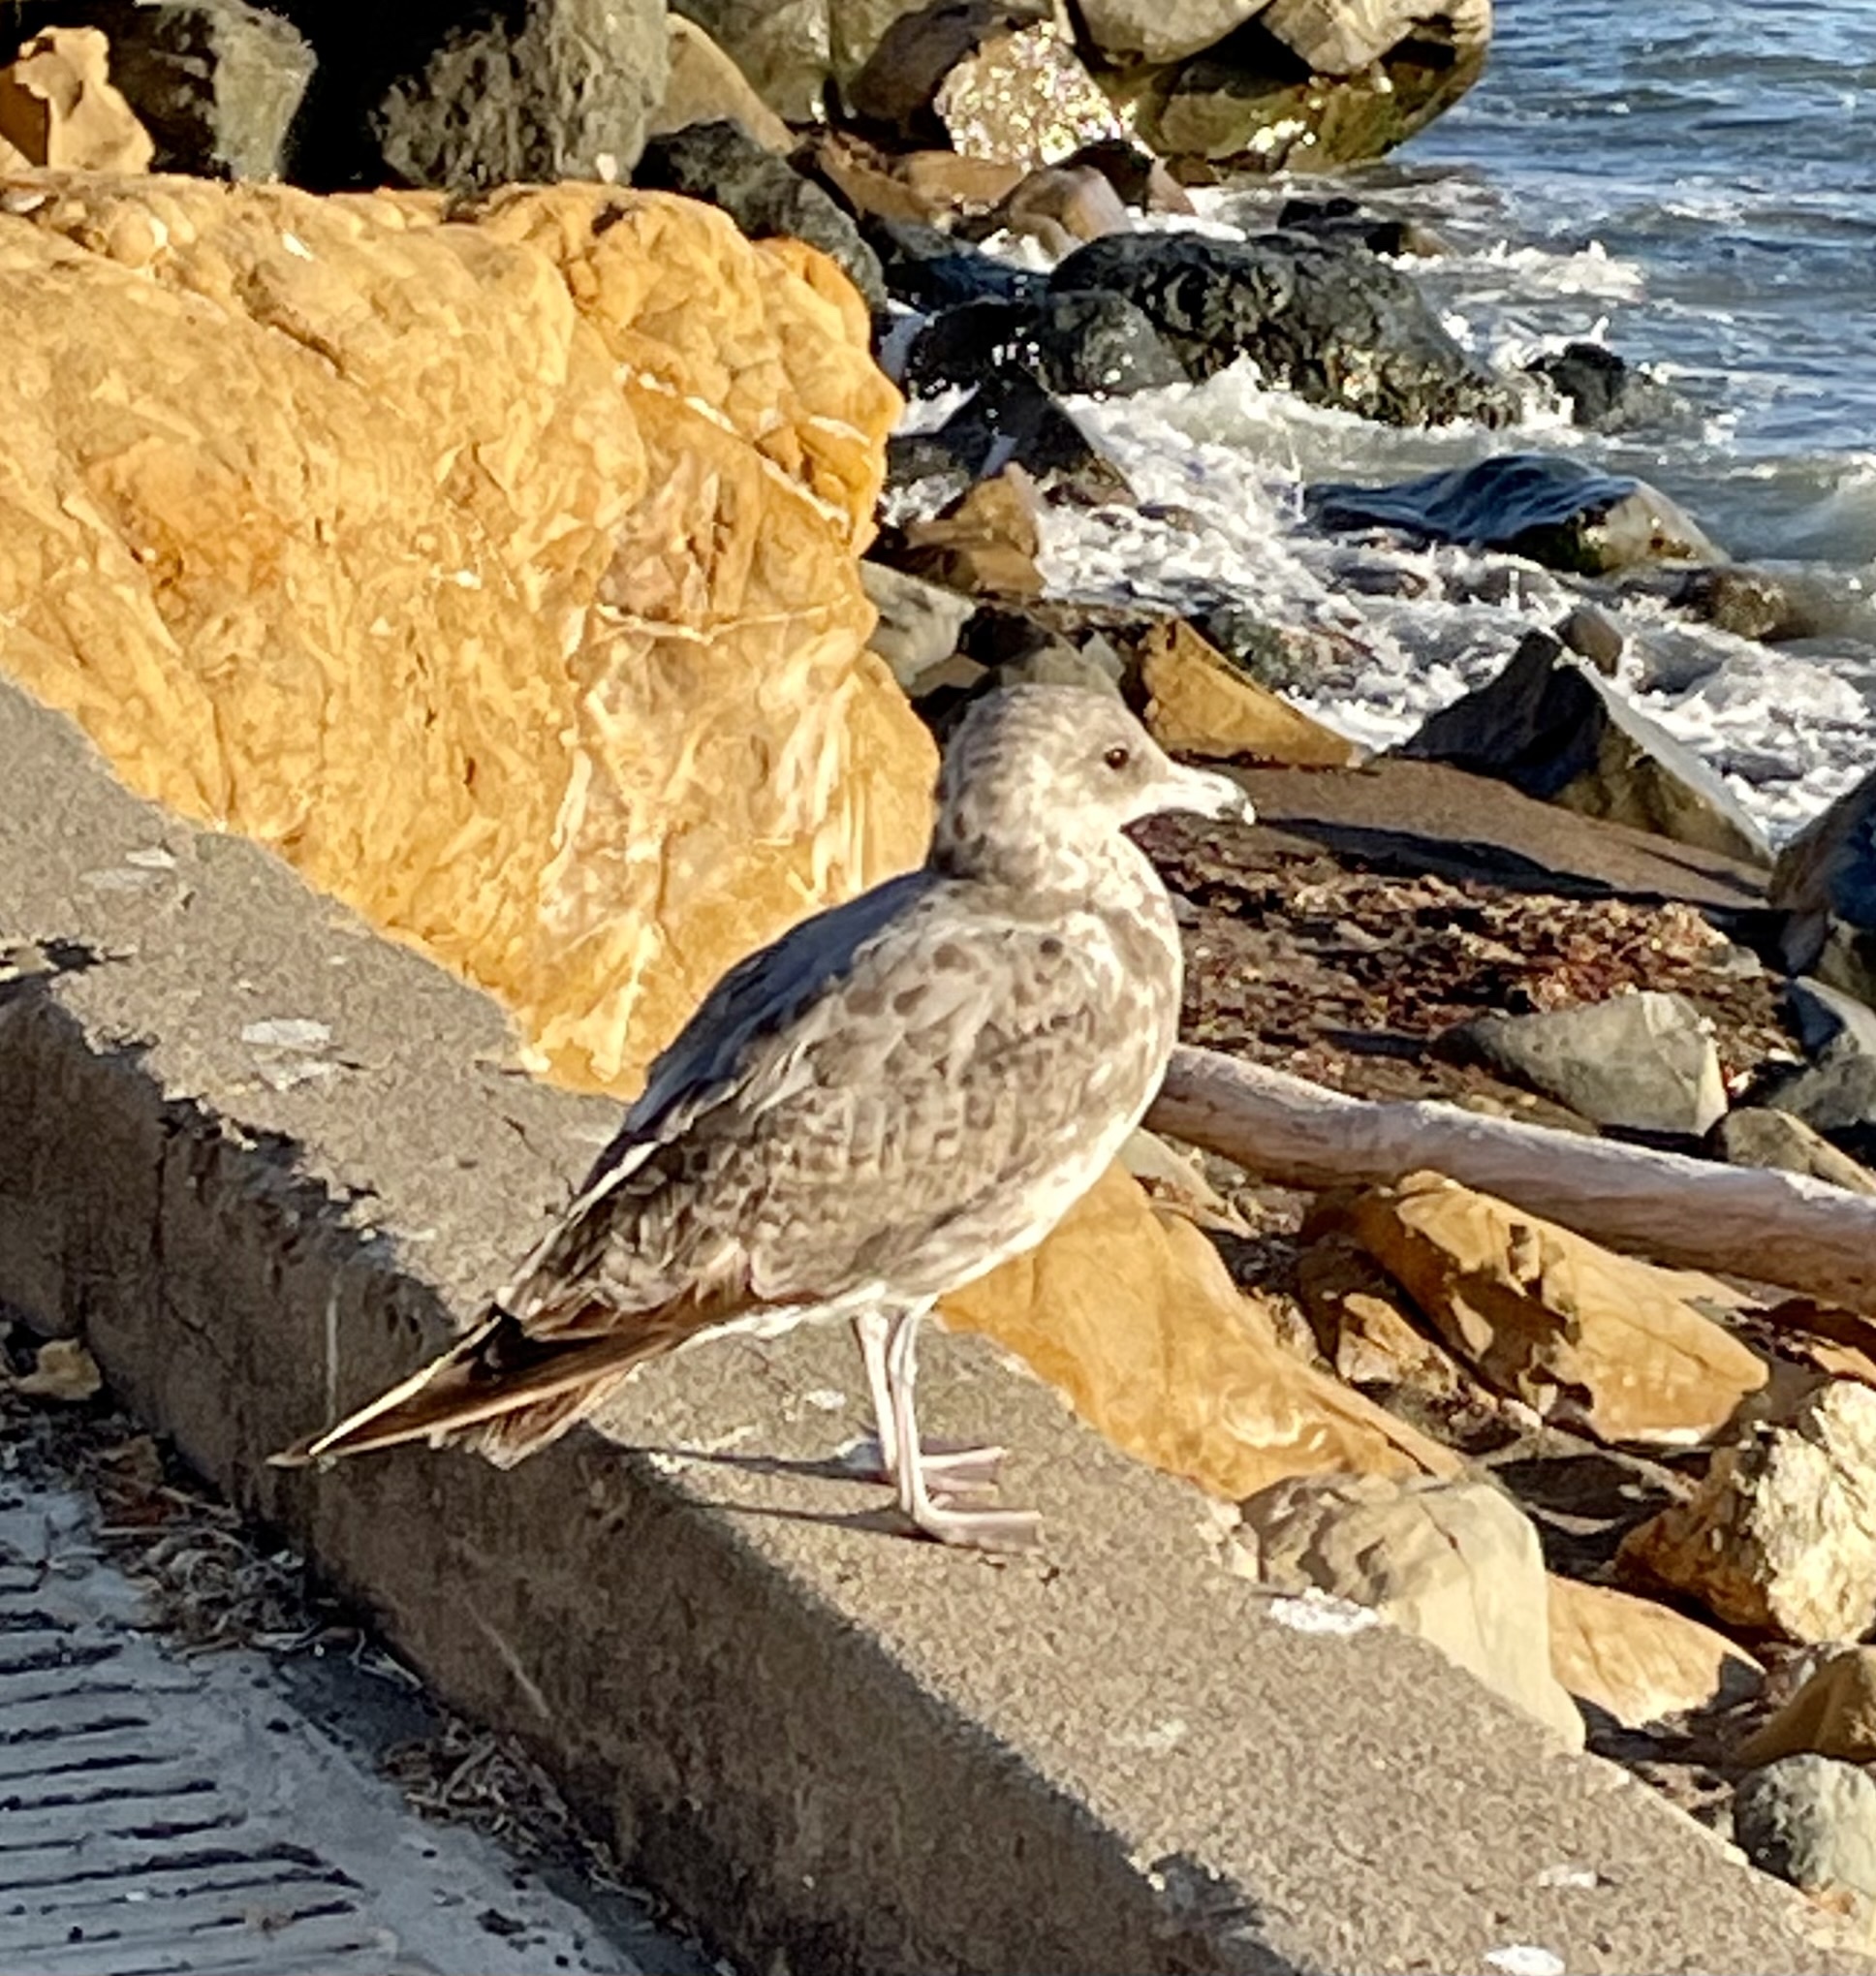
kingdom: Animalia
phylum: Chordata
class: Aves
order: Charadriiformes
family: Laridae
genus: Larus
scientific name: Larus californicus
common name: California gull
